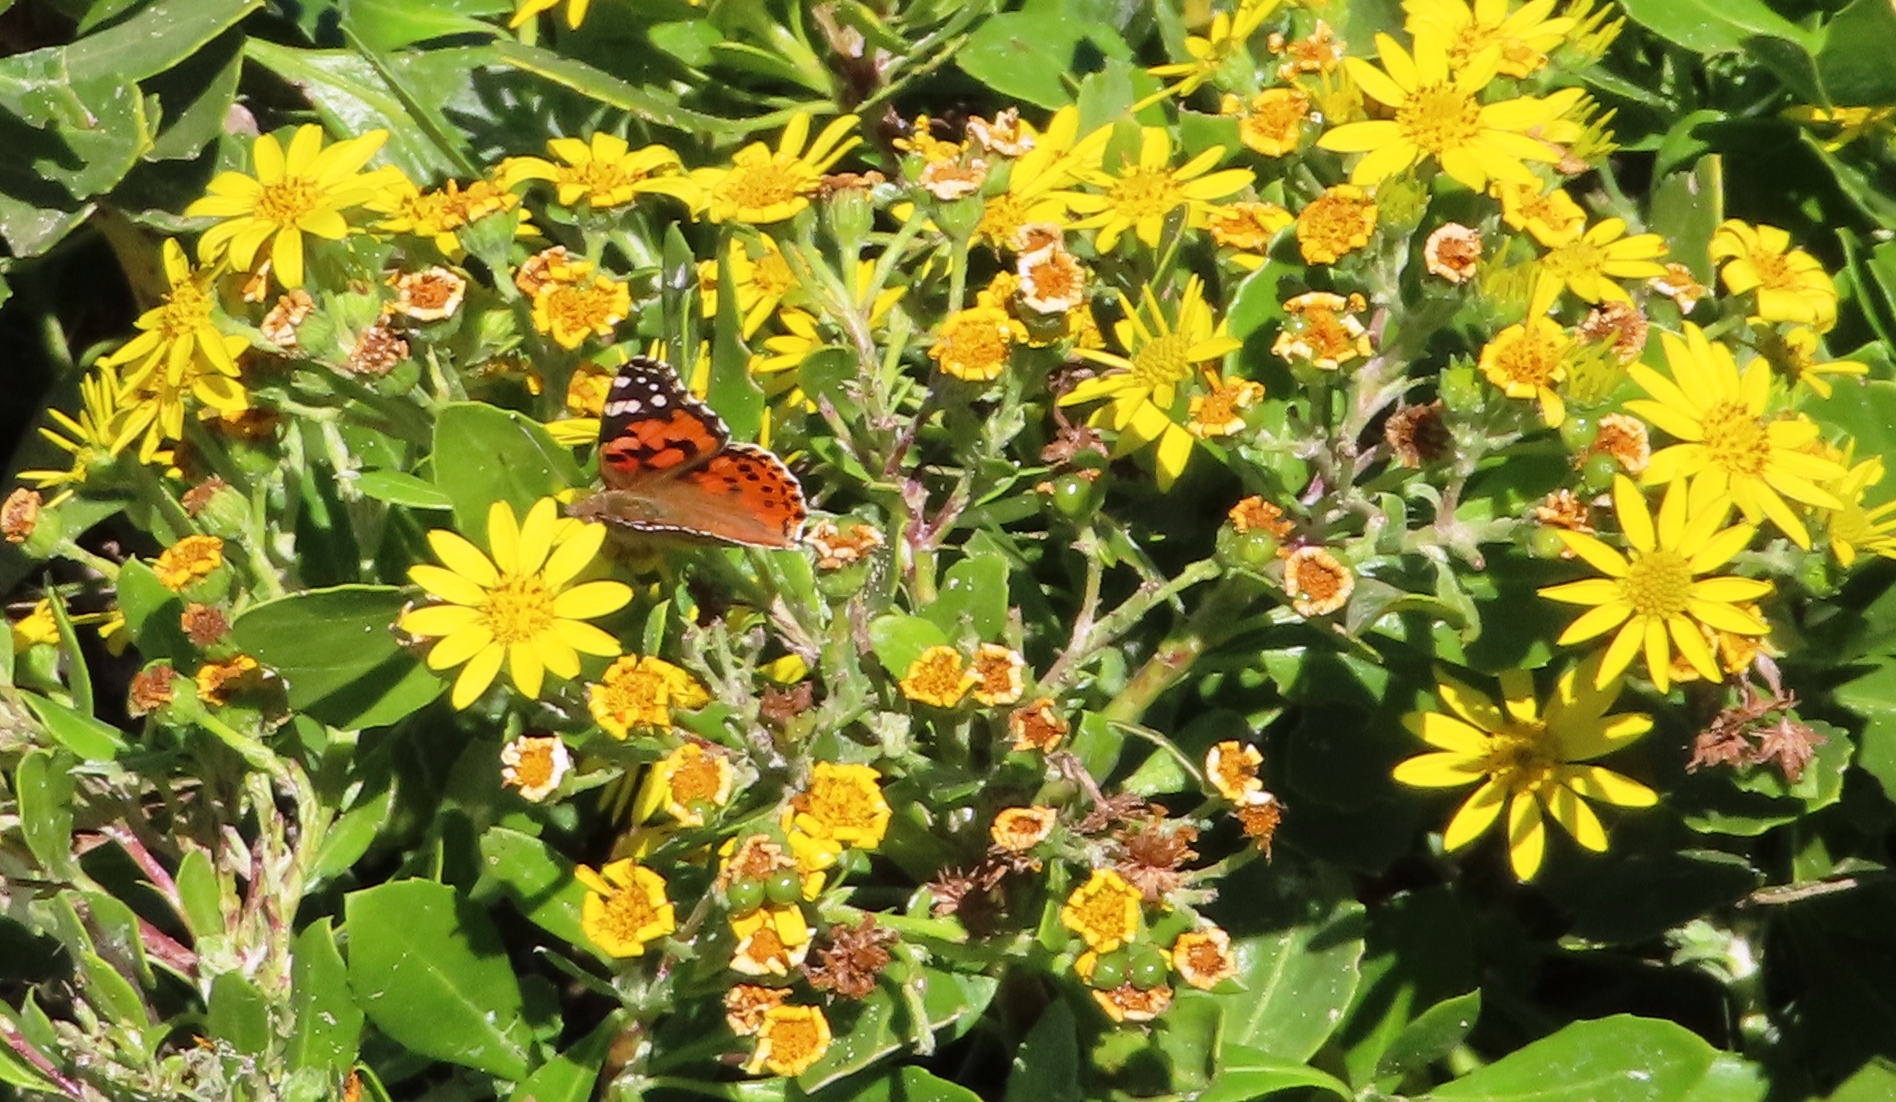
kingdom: Animalia
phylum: Arthropoda
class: Insecta
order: Lepidoptera
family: Nymphalidae
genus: Vanessa
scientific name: Vanessa cardui
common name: Painted lady
